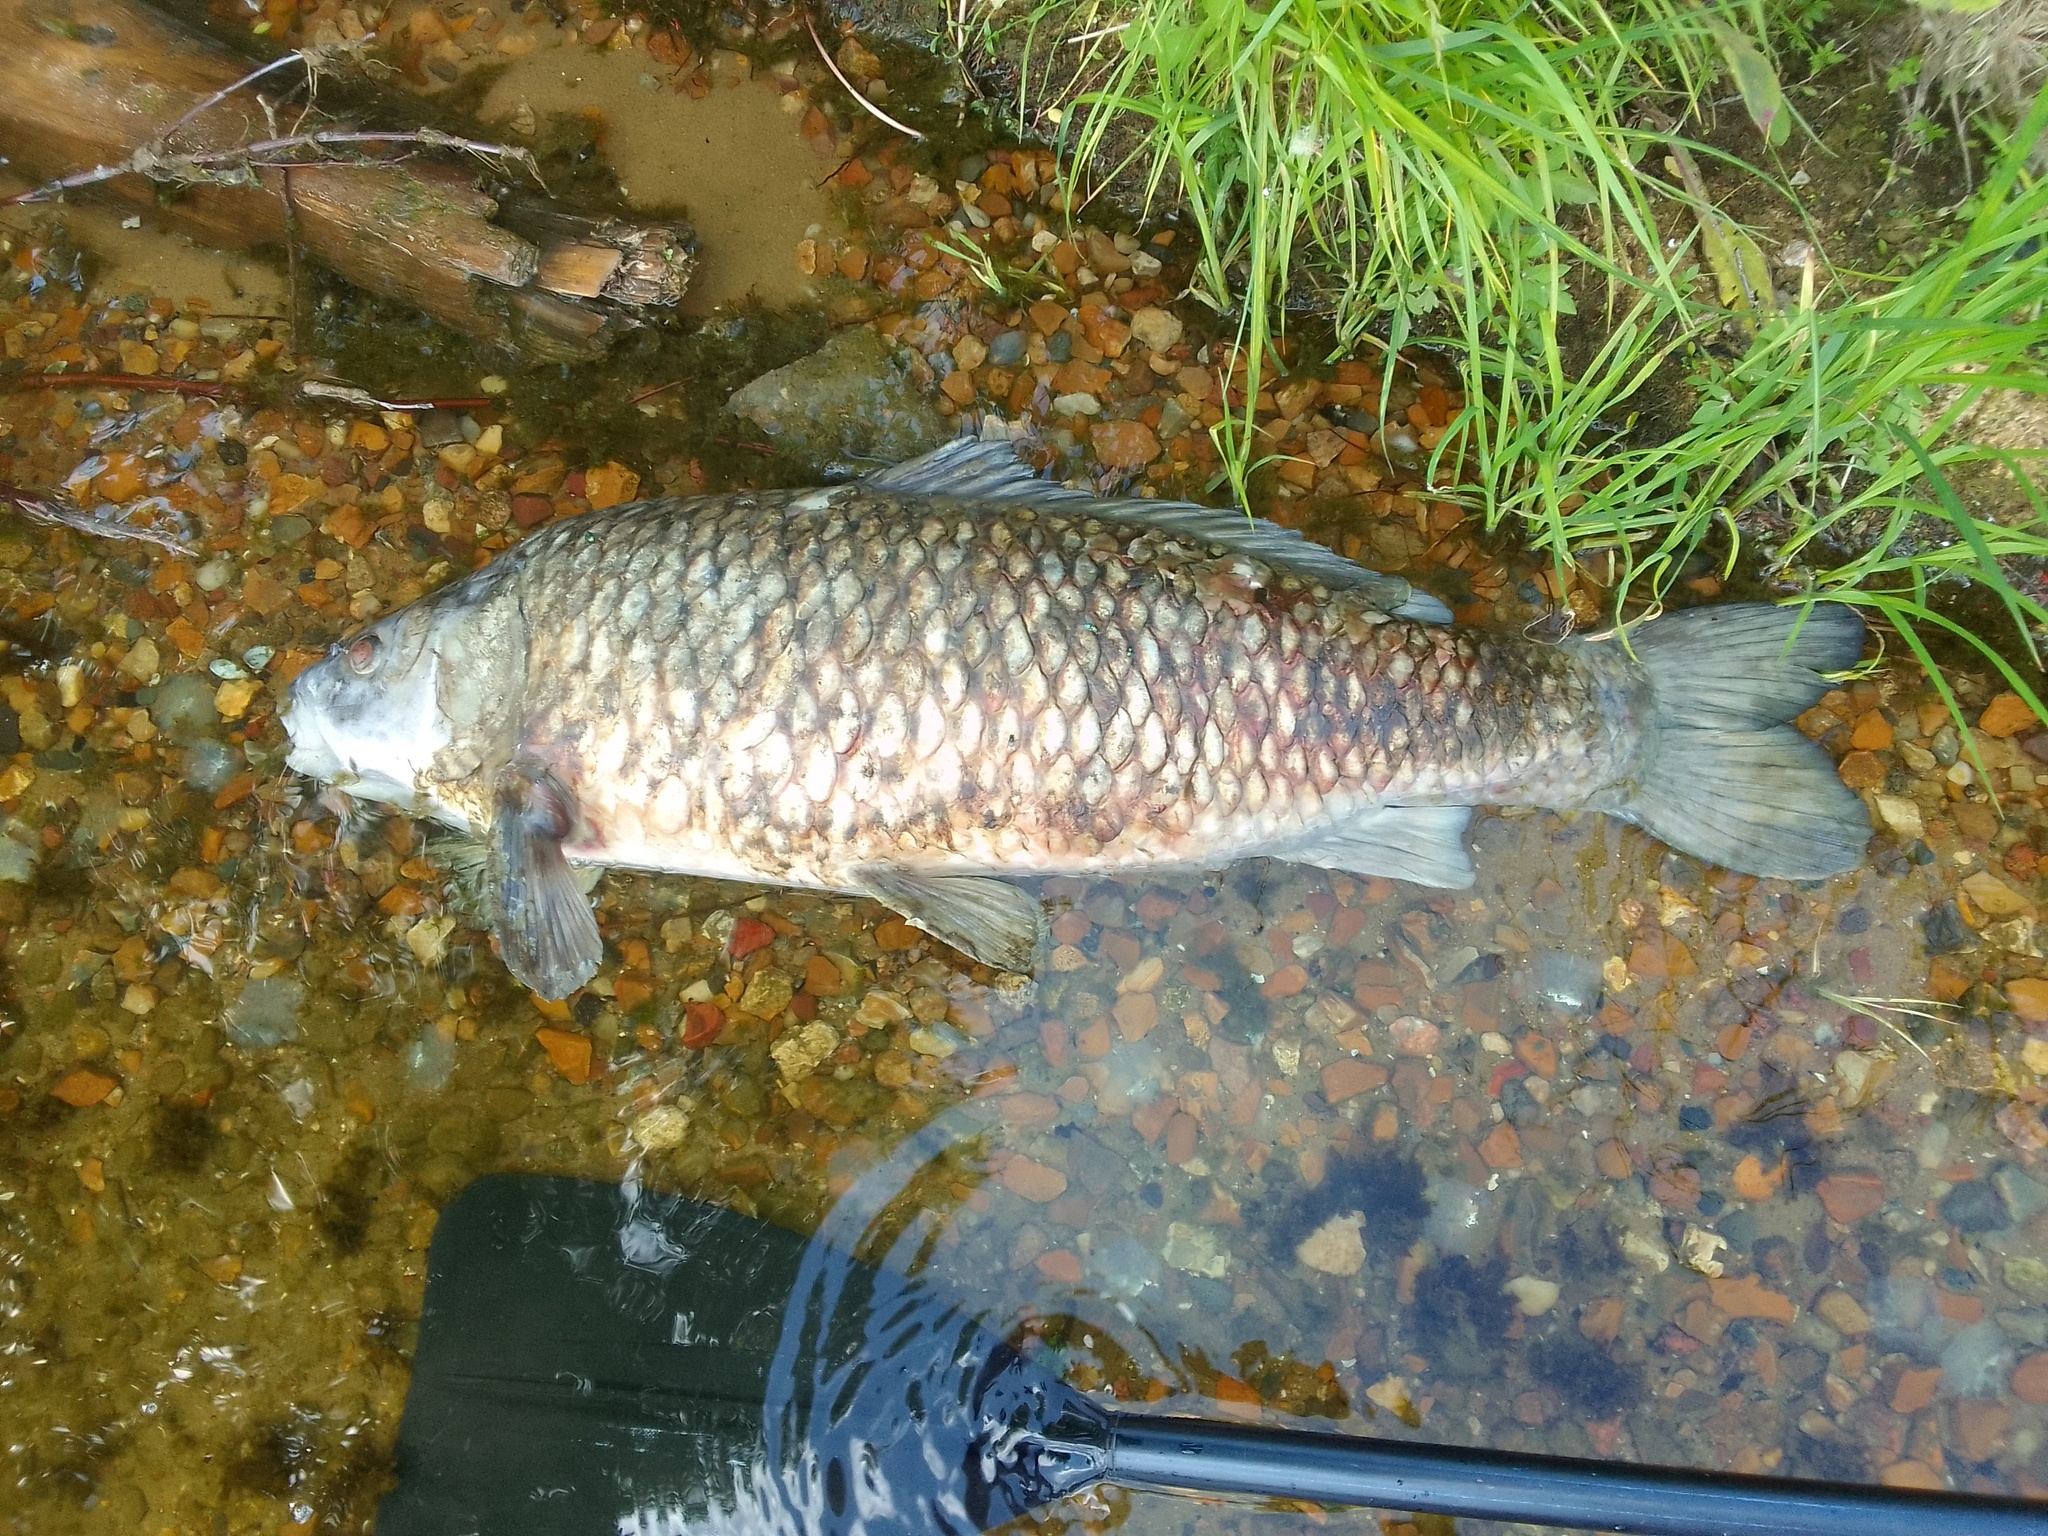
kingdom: Animalia
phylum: Chordata
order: Cypriniformes
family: Cyprinidae
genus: Cyprinus
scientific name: Cyprinus carpio
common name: Common carp
